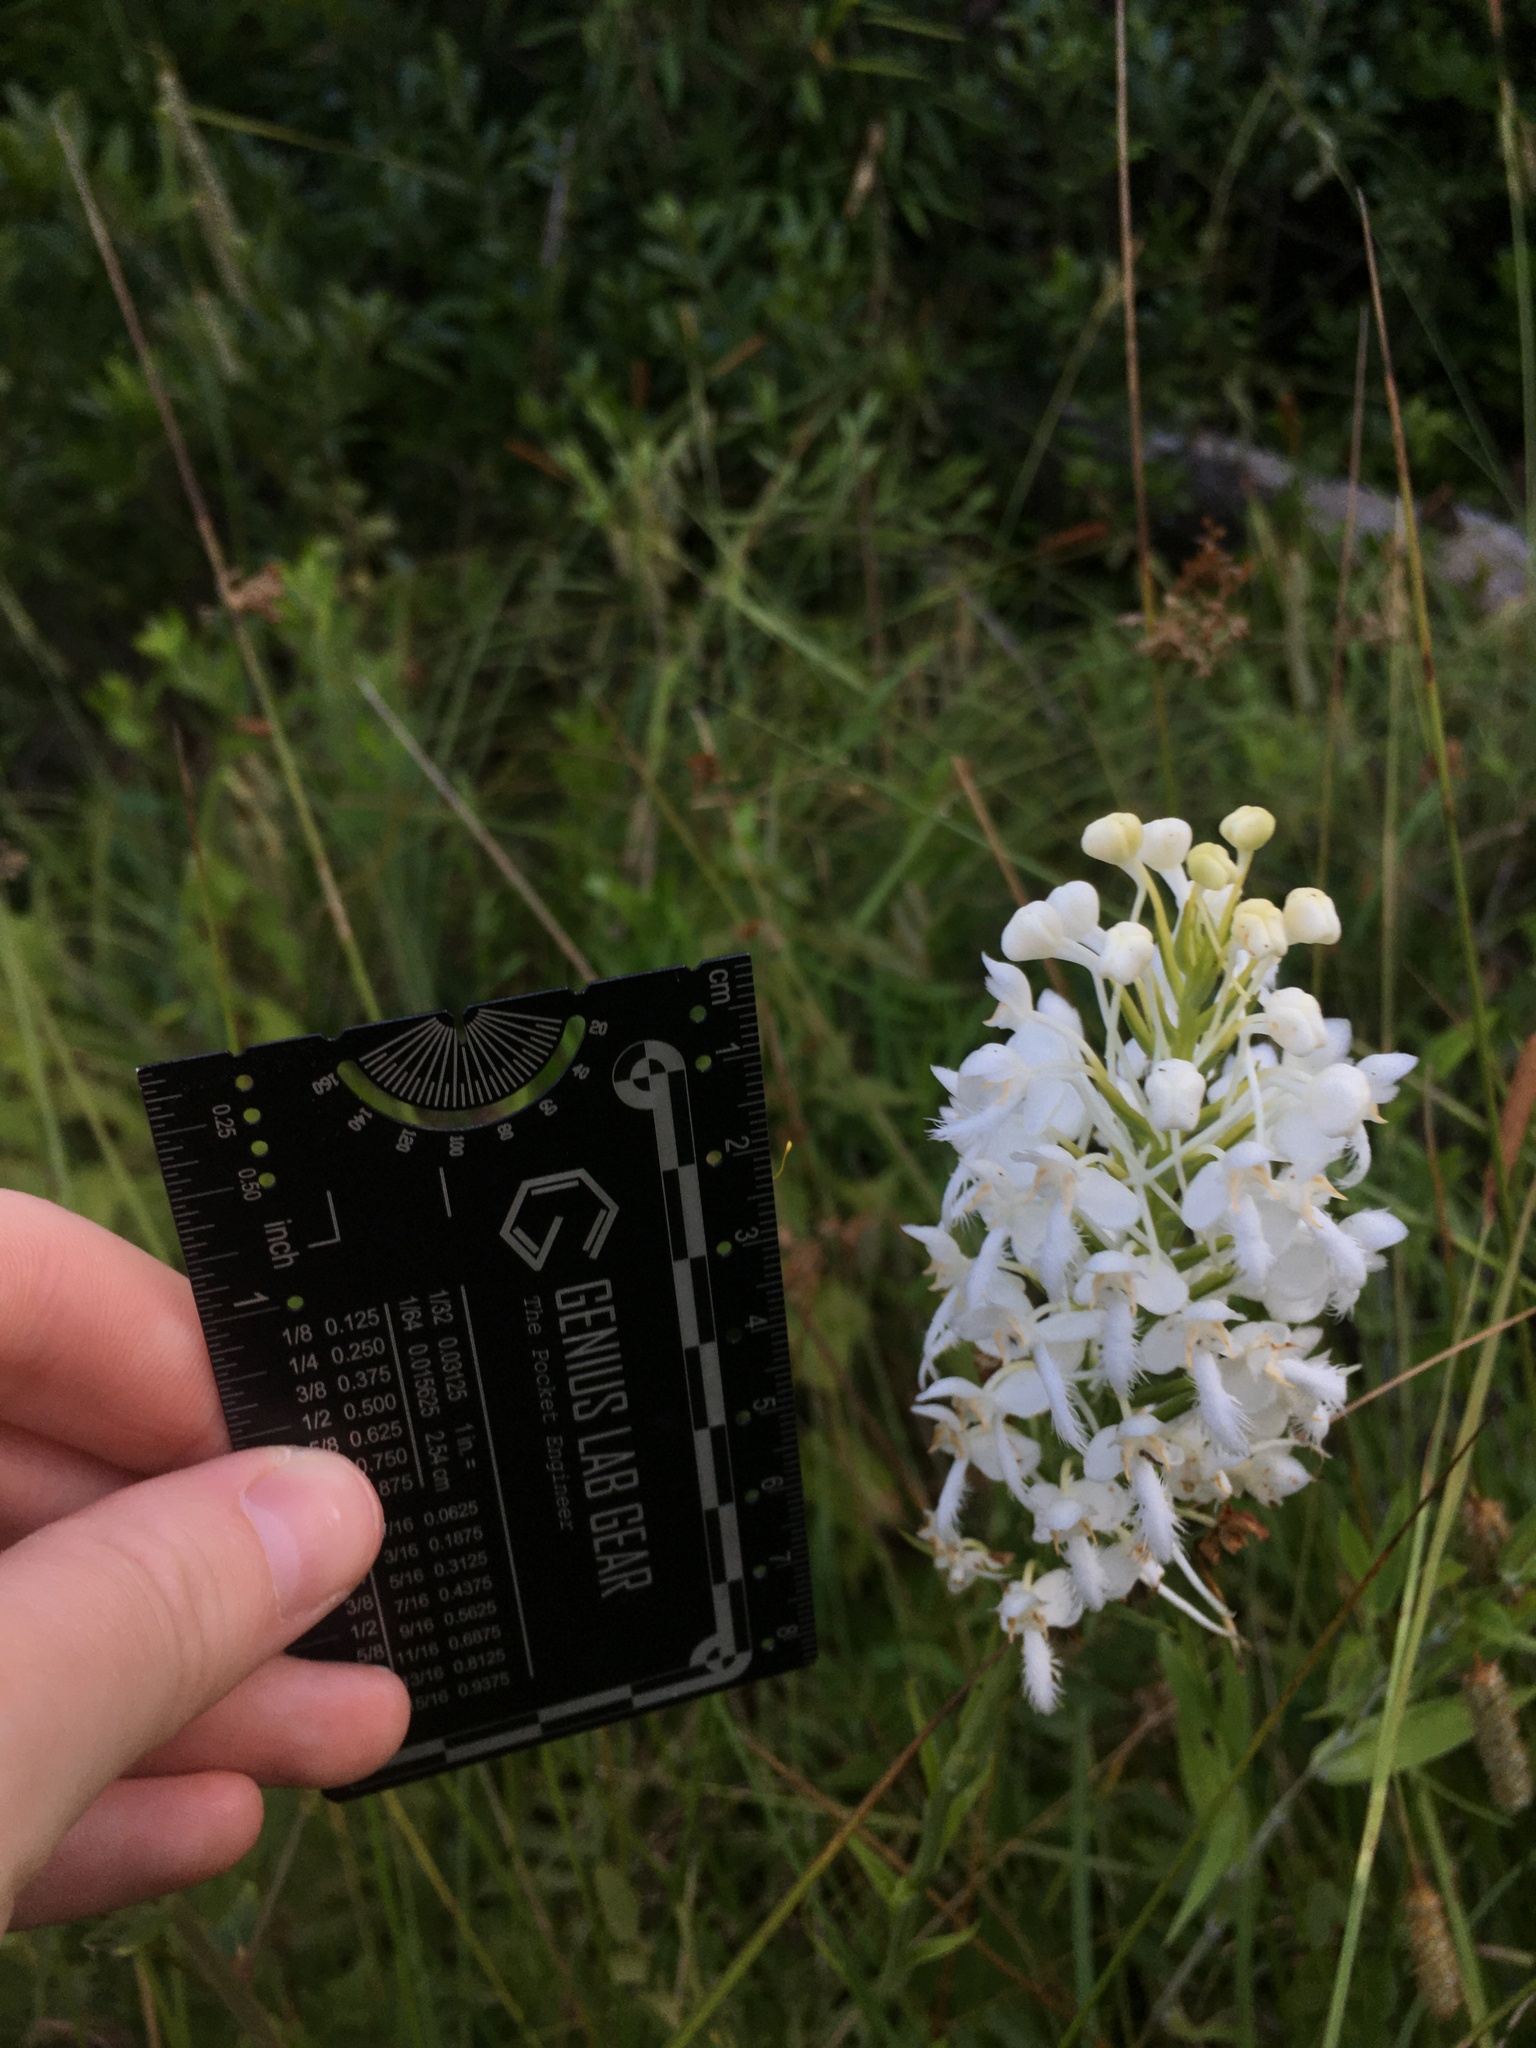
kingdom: Plantae
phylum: Tracheophyta
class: Liliopsida
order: Asparagales
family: Orchidaceae
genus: Platanthera
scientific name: Platanthera blephariglottis
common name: White fringed orchid
